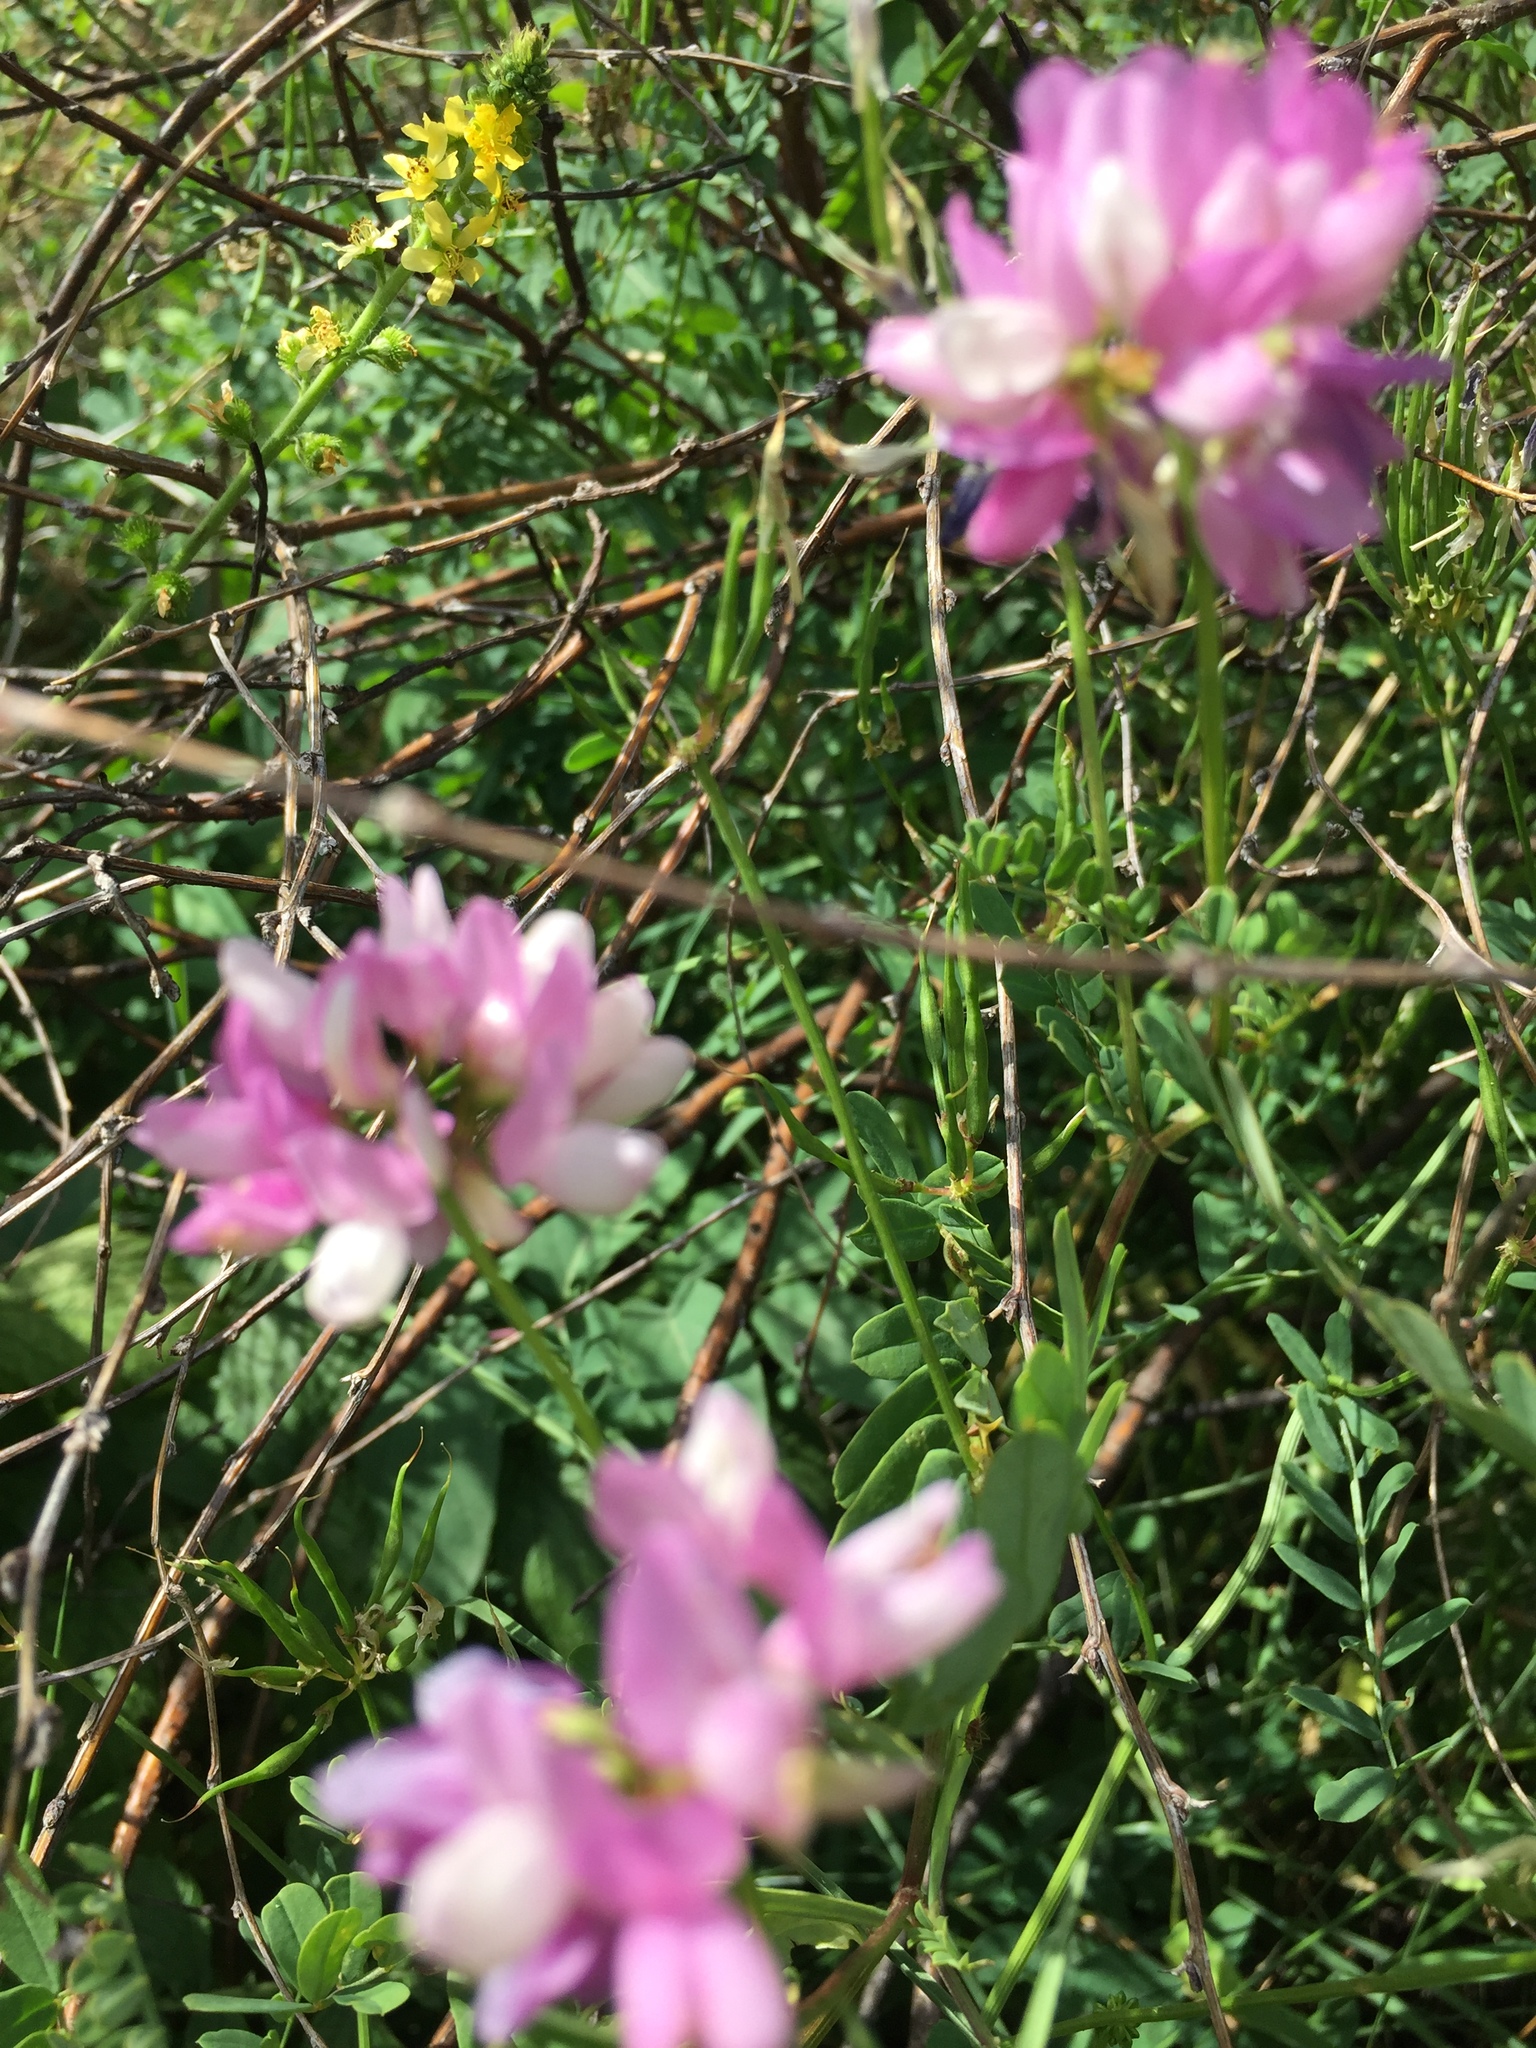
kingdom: Plantae
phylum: Tracheophyta
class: Magnoliopsida
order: Fabales
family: Fabaceae
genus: Coronilla
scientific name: Coronilla varia
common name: Crownvetch
